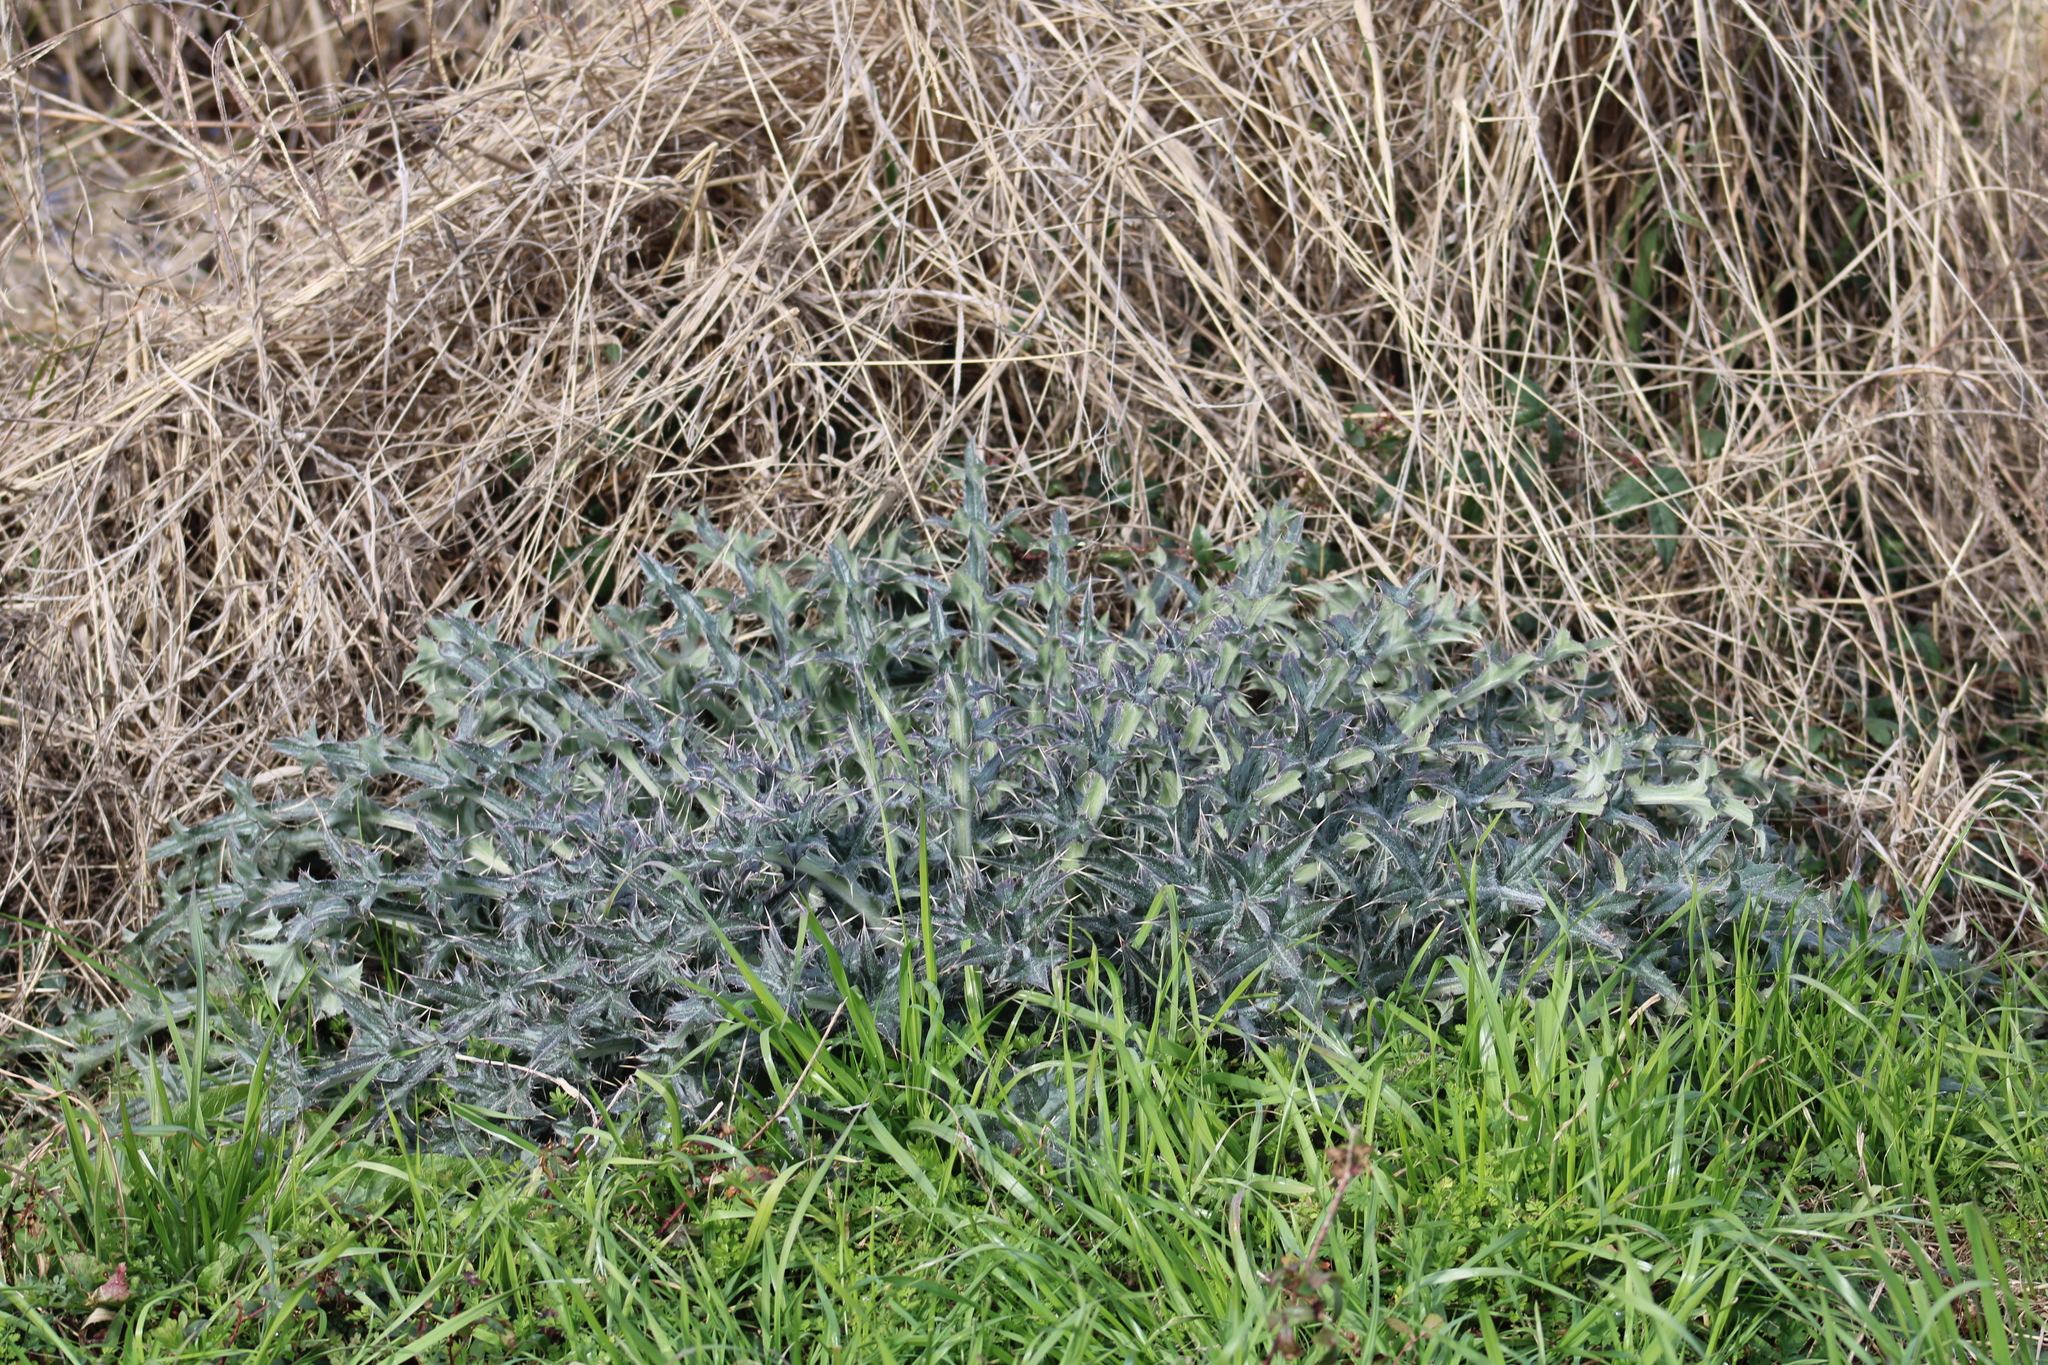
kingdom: Plantae
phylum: Tracheophyta
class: Magnoliopsida
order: Asterales
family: Asteraceae
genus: Cirsium
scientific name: Cirsium horridulum
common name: Bristly thistle
